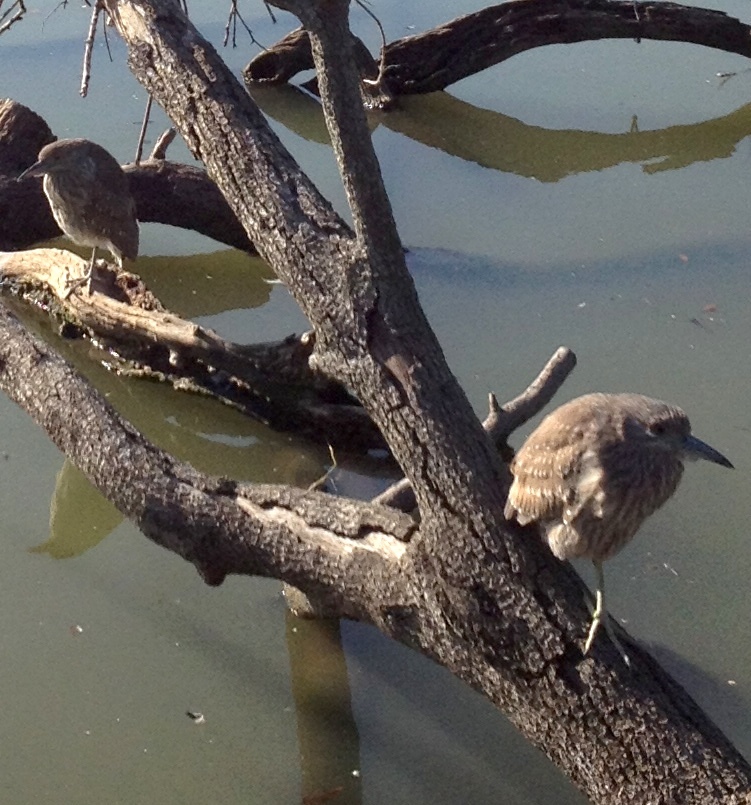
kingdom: Animalia
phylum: Chordata
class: Aves
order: Pelecaniformes
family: Ardeidae
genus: Nycticorax
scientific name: Nycticorax nycticorax
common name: Black-crowned night heron
